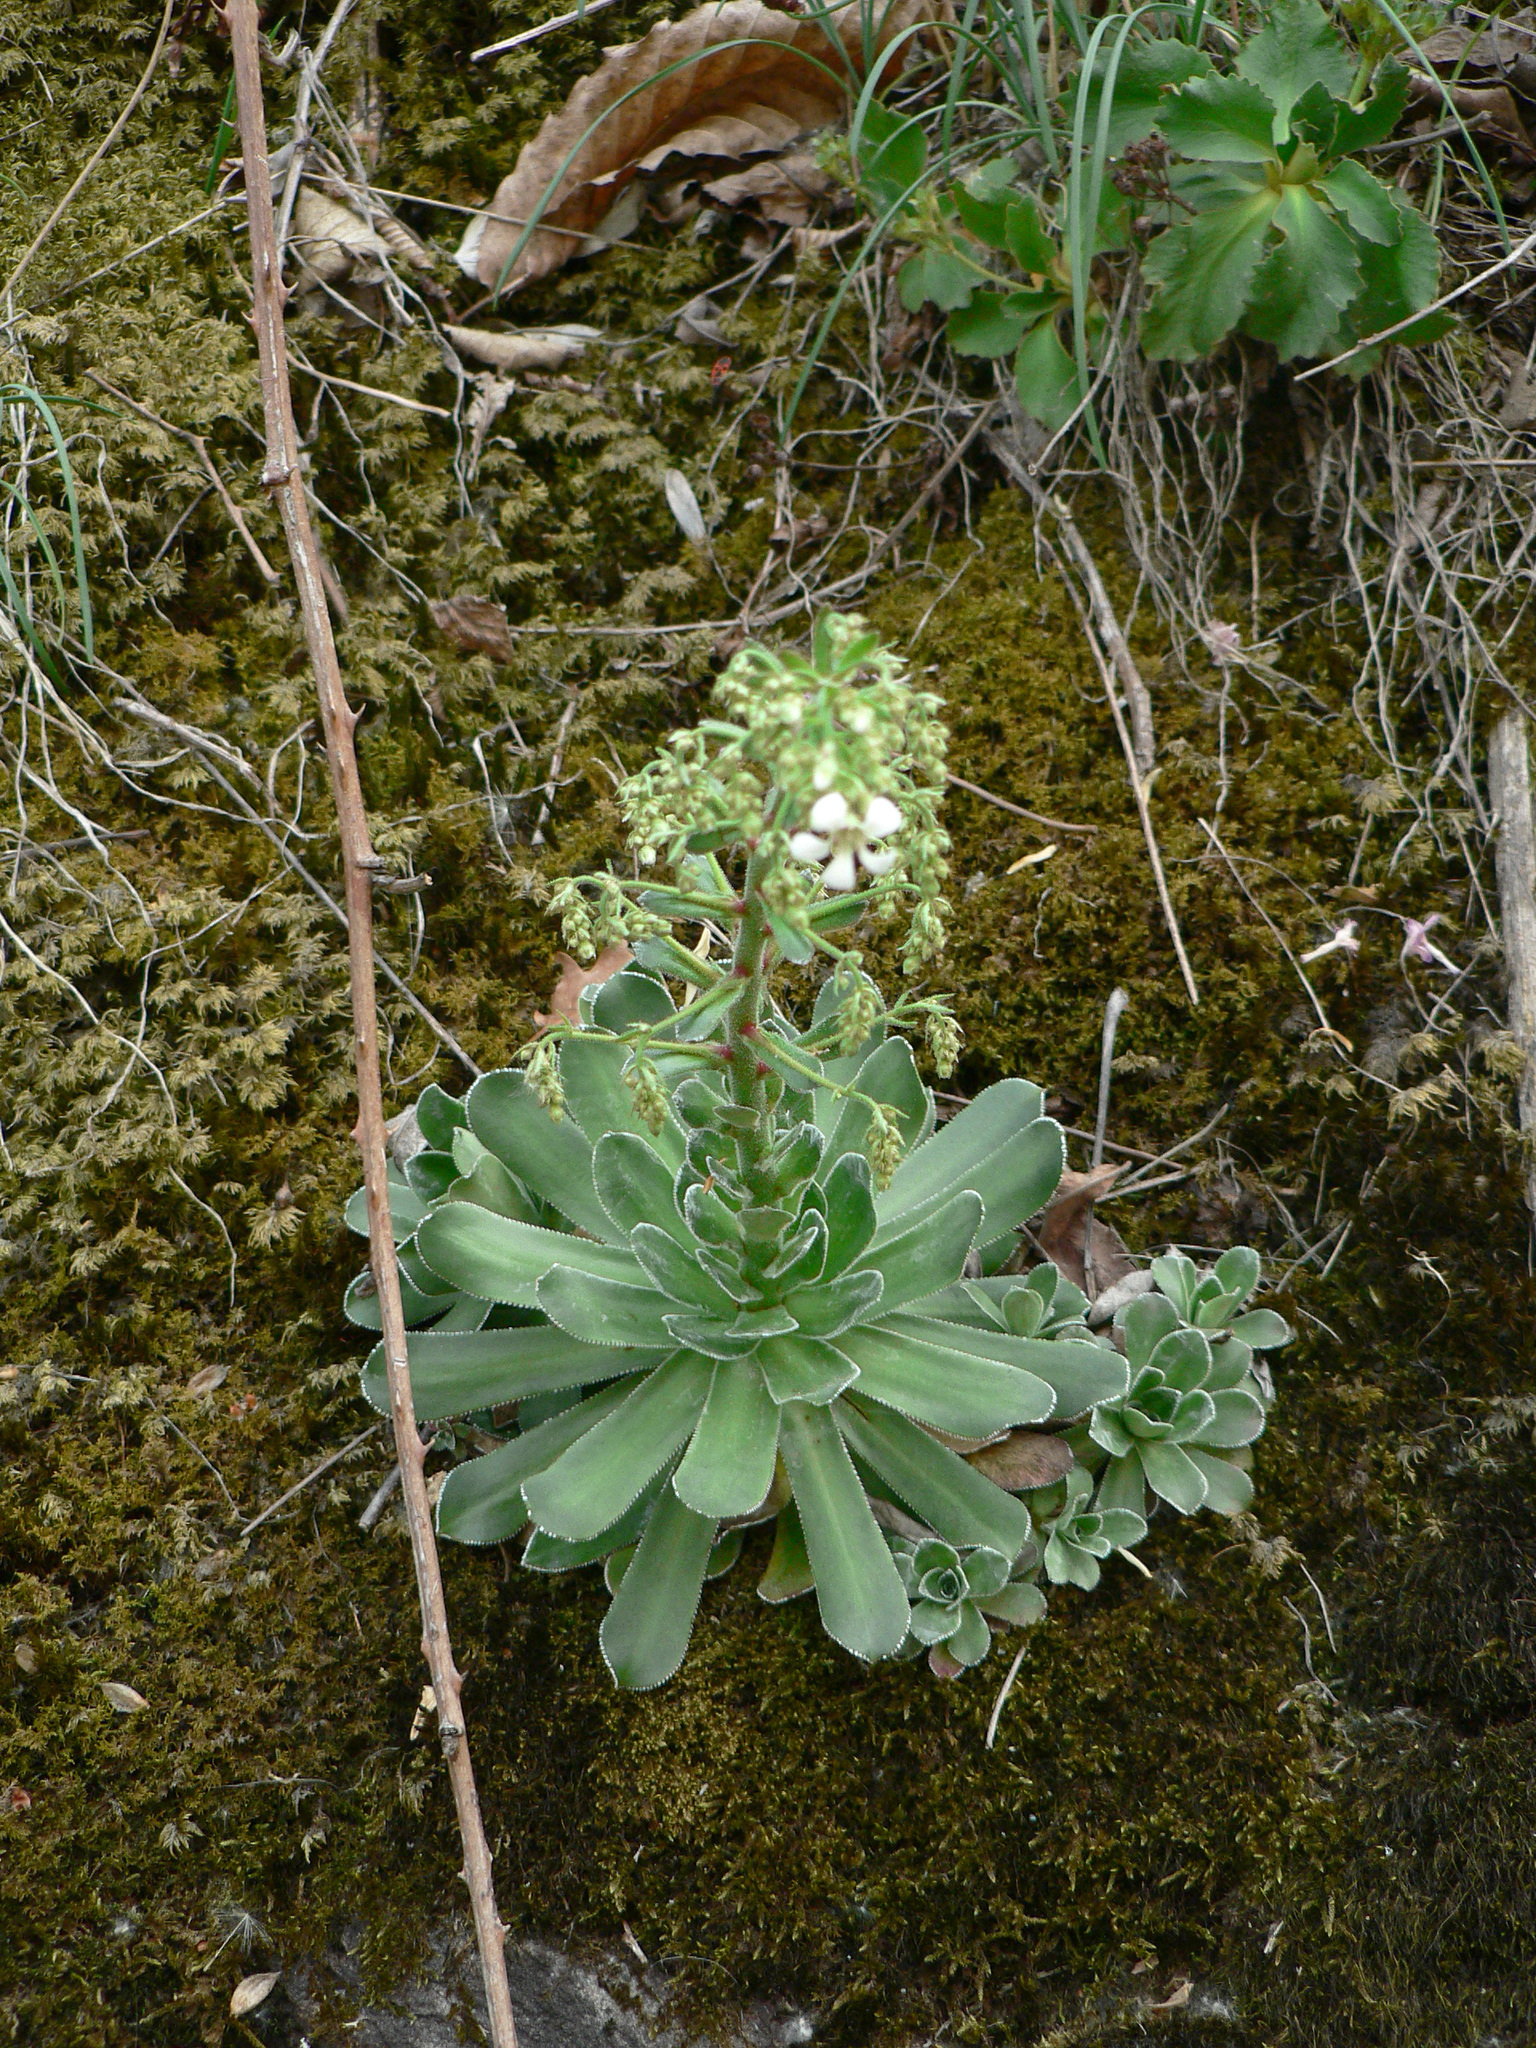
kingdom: Plantae
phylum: Tracheophyta
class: Magnoliopsida
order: Saxifragales
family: Saxifragaceae
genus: Saxifraga
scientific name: Saxifraga cotyledon
